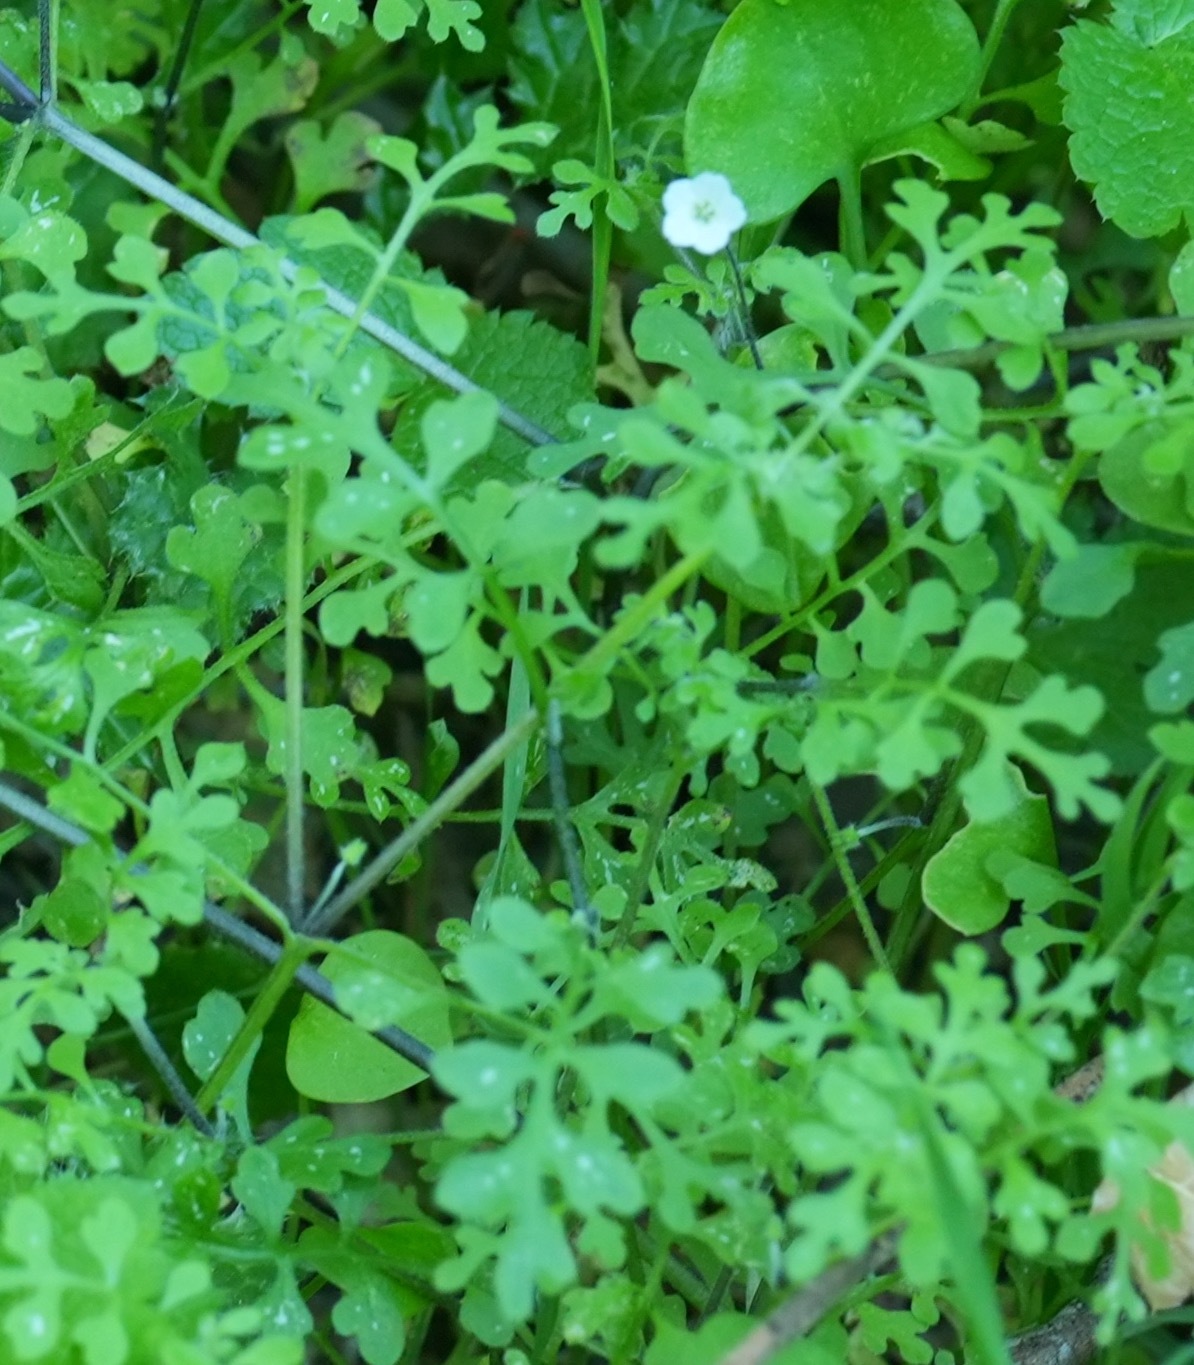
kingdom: Plantae
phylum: Tracheophyta
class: Magnoliopsida
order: Boraginales
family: Hydrophyllaceae
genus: Nemophila
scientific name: Nemophila heterophylla
